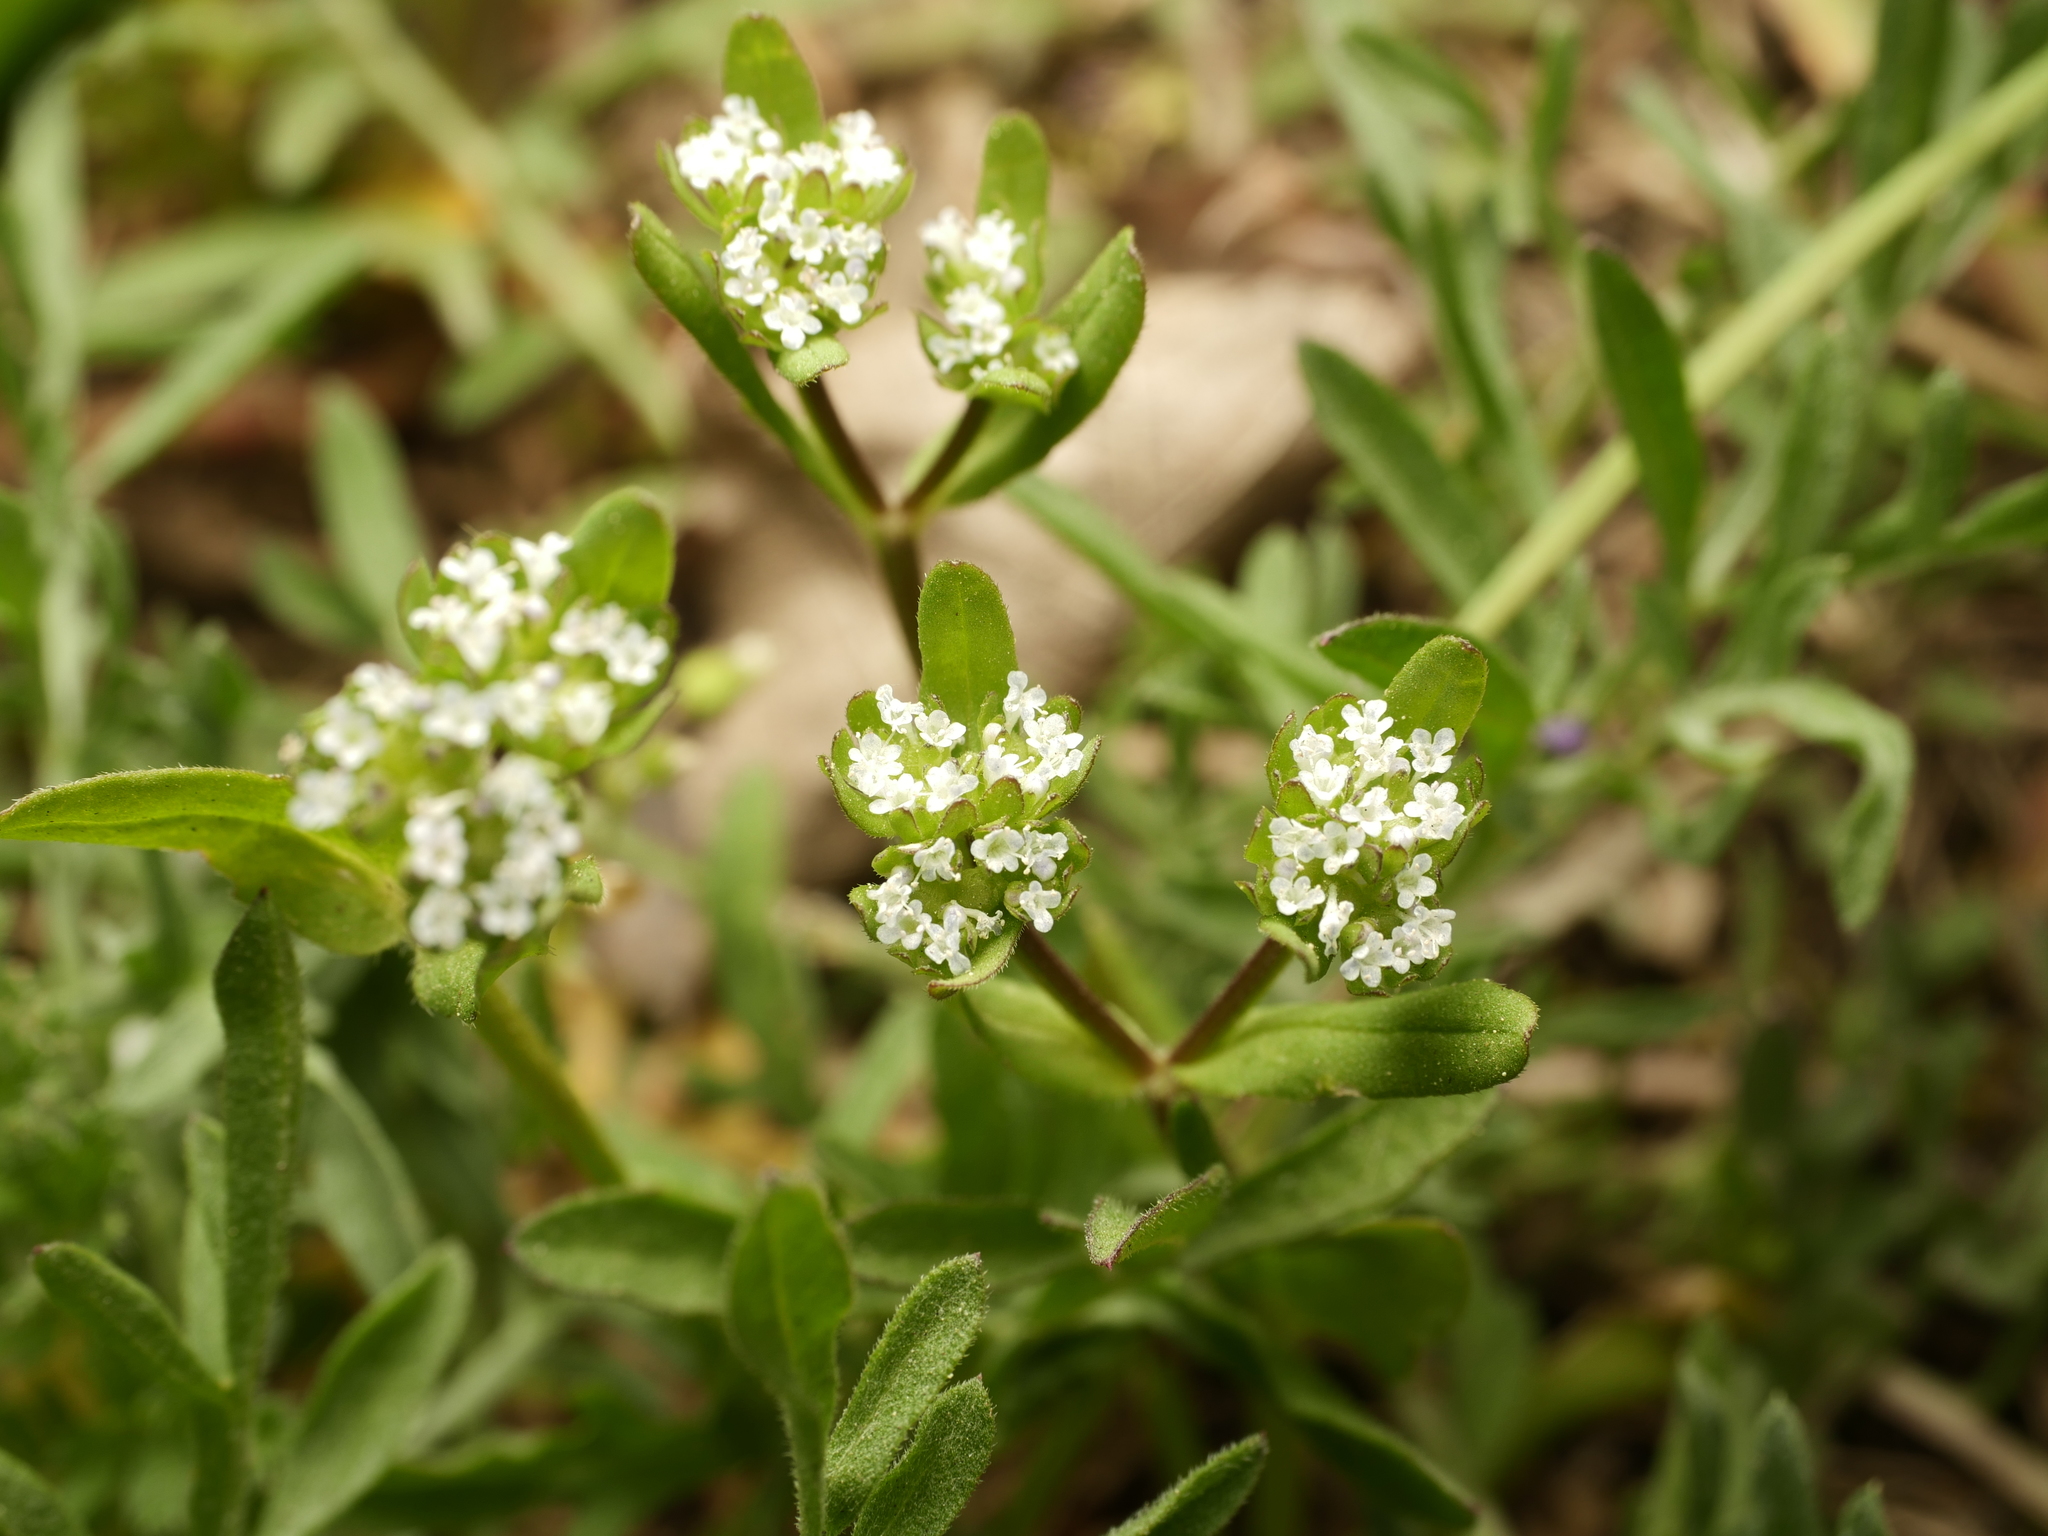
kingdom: Plantae
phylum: Tracheophyta
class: Magnoliopsida
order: Dipsacales
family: Caprifoliaceae
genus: Valerianella
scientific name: Valerianella locusta
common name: Common cornsalad
